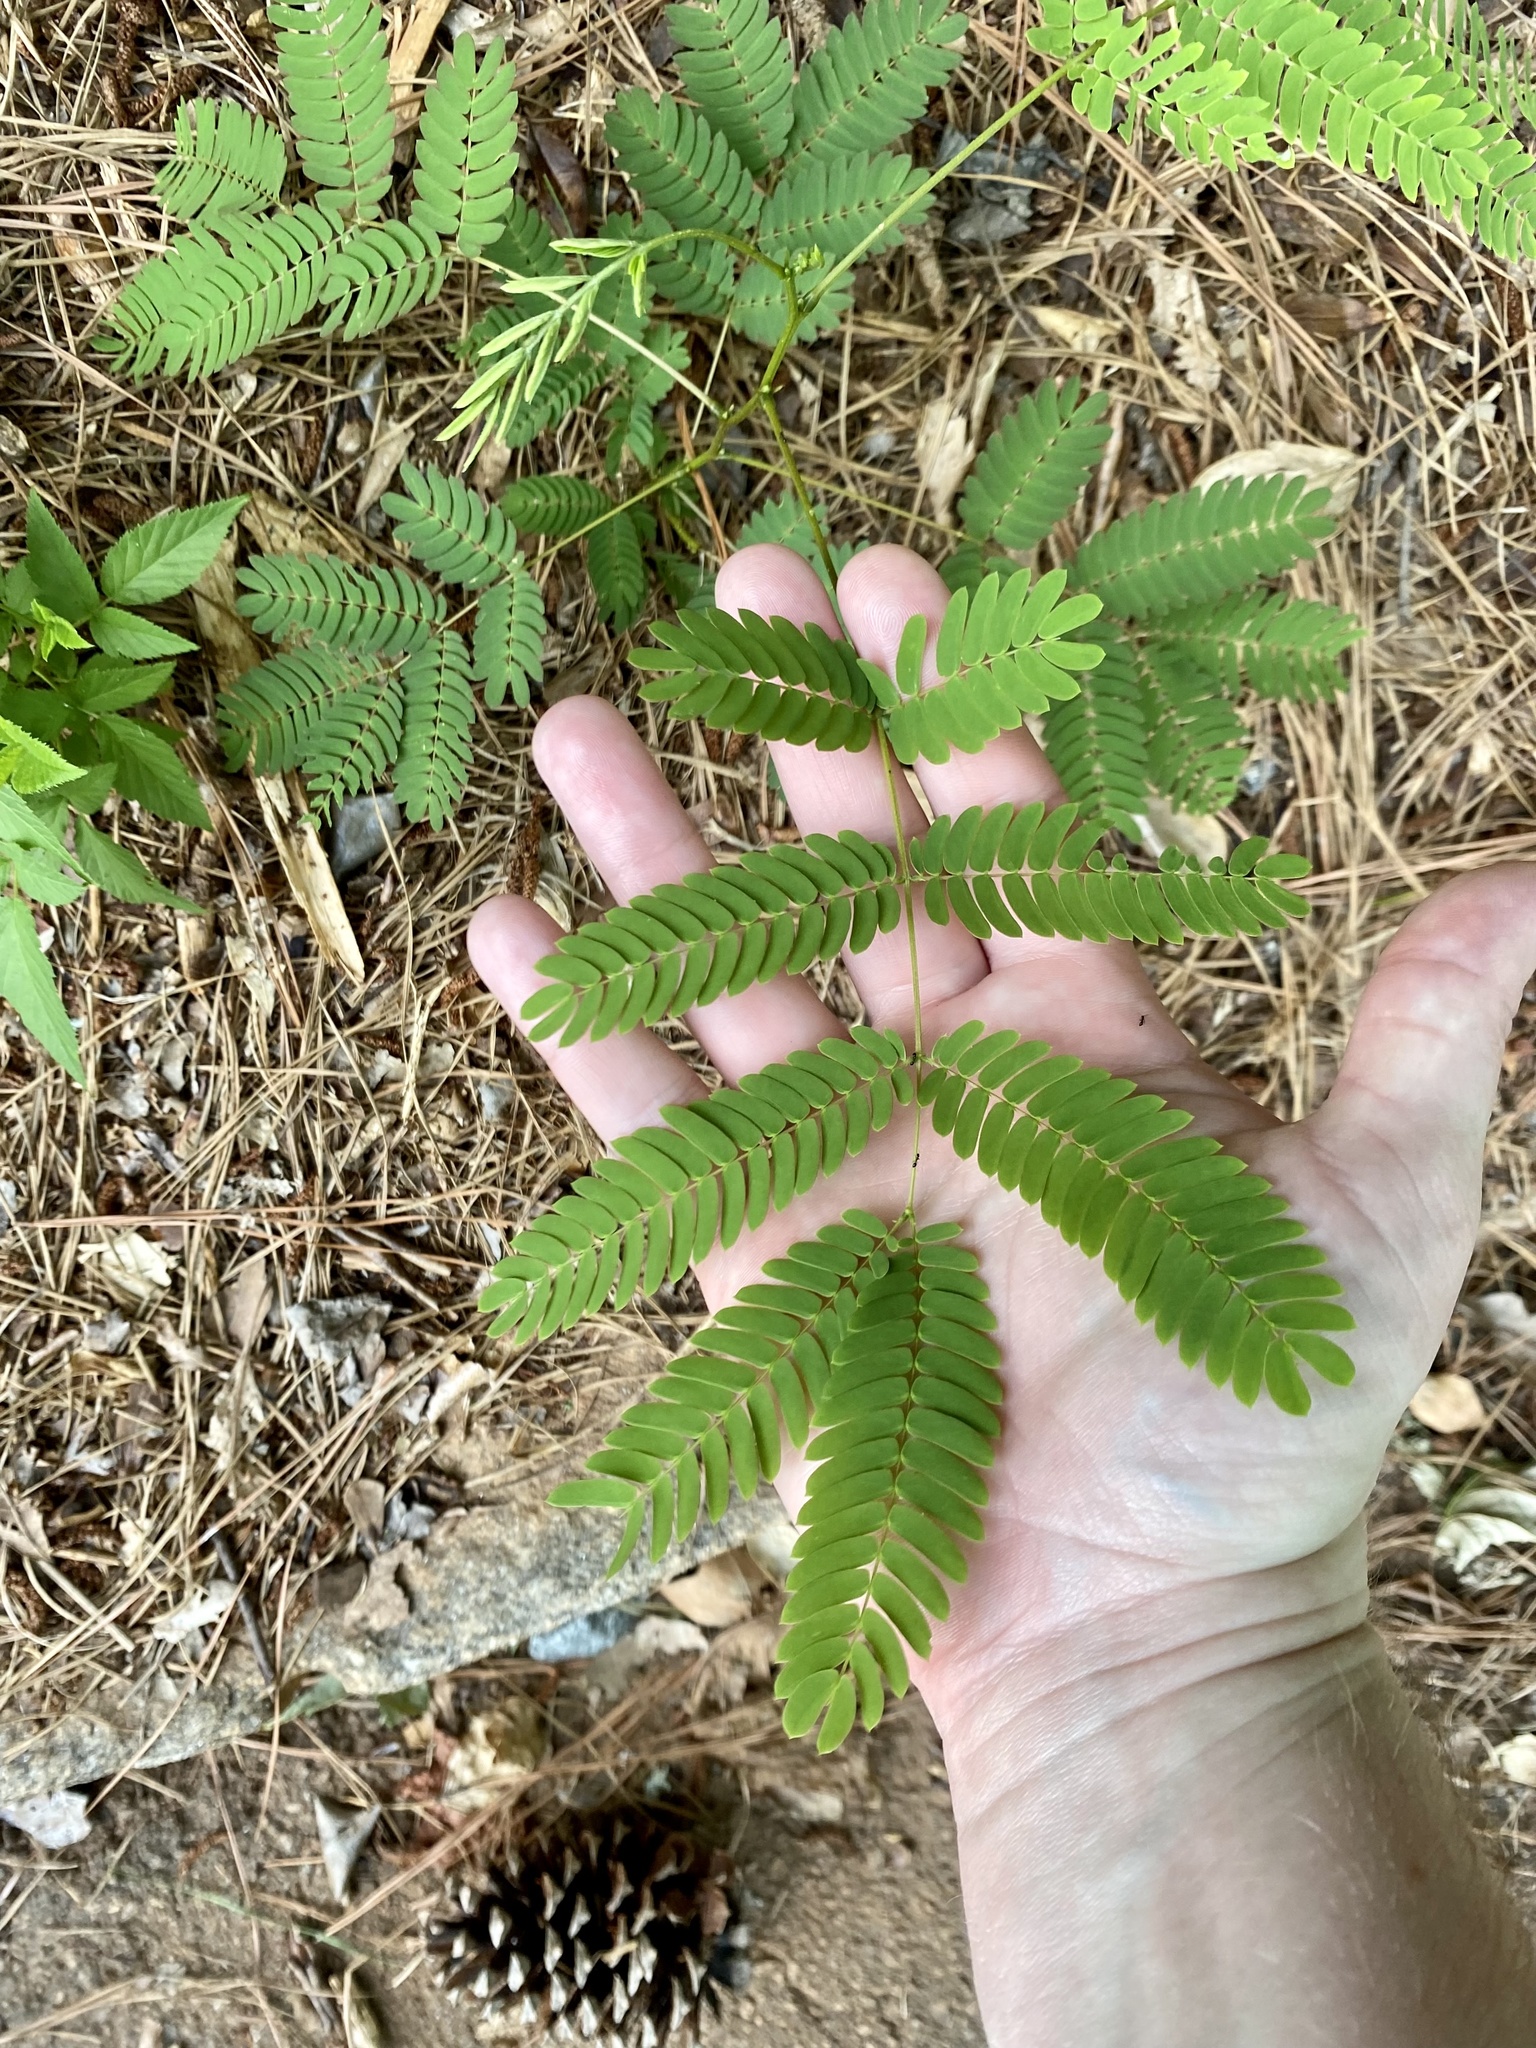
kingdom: Plantae
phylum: Tracheophyta
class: Magnoliopsida
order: Fabales
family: Fabaceae
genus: Albizia
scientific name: Albizia julibrissin
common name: Silktree
